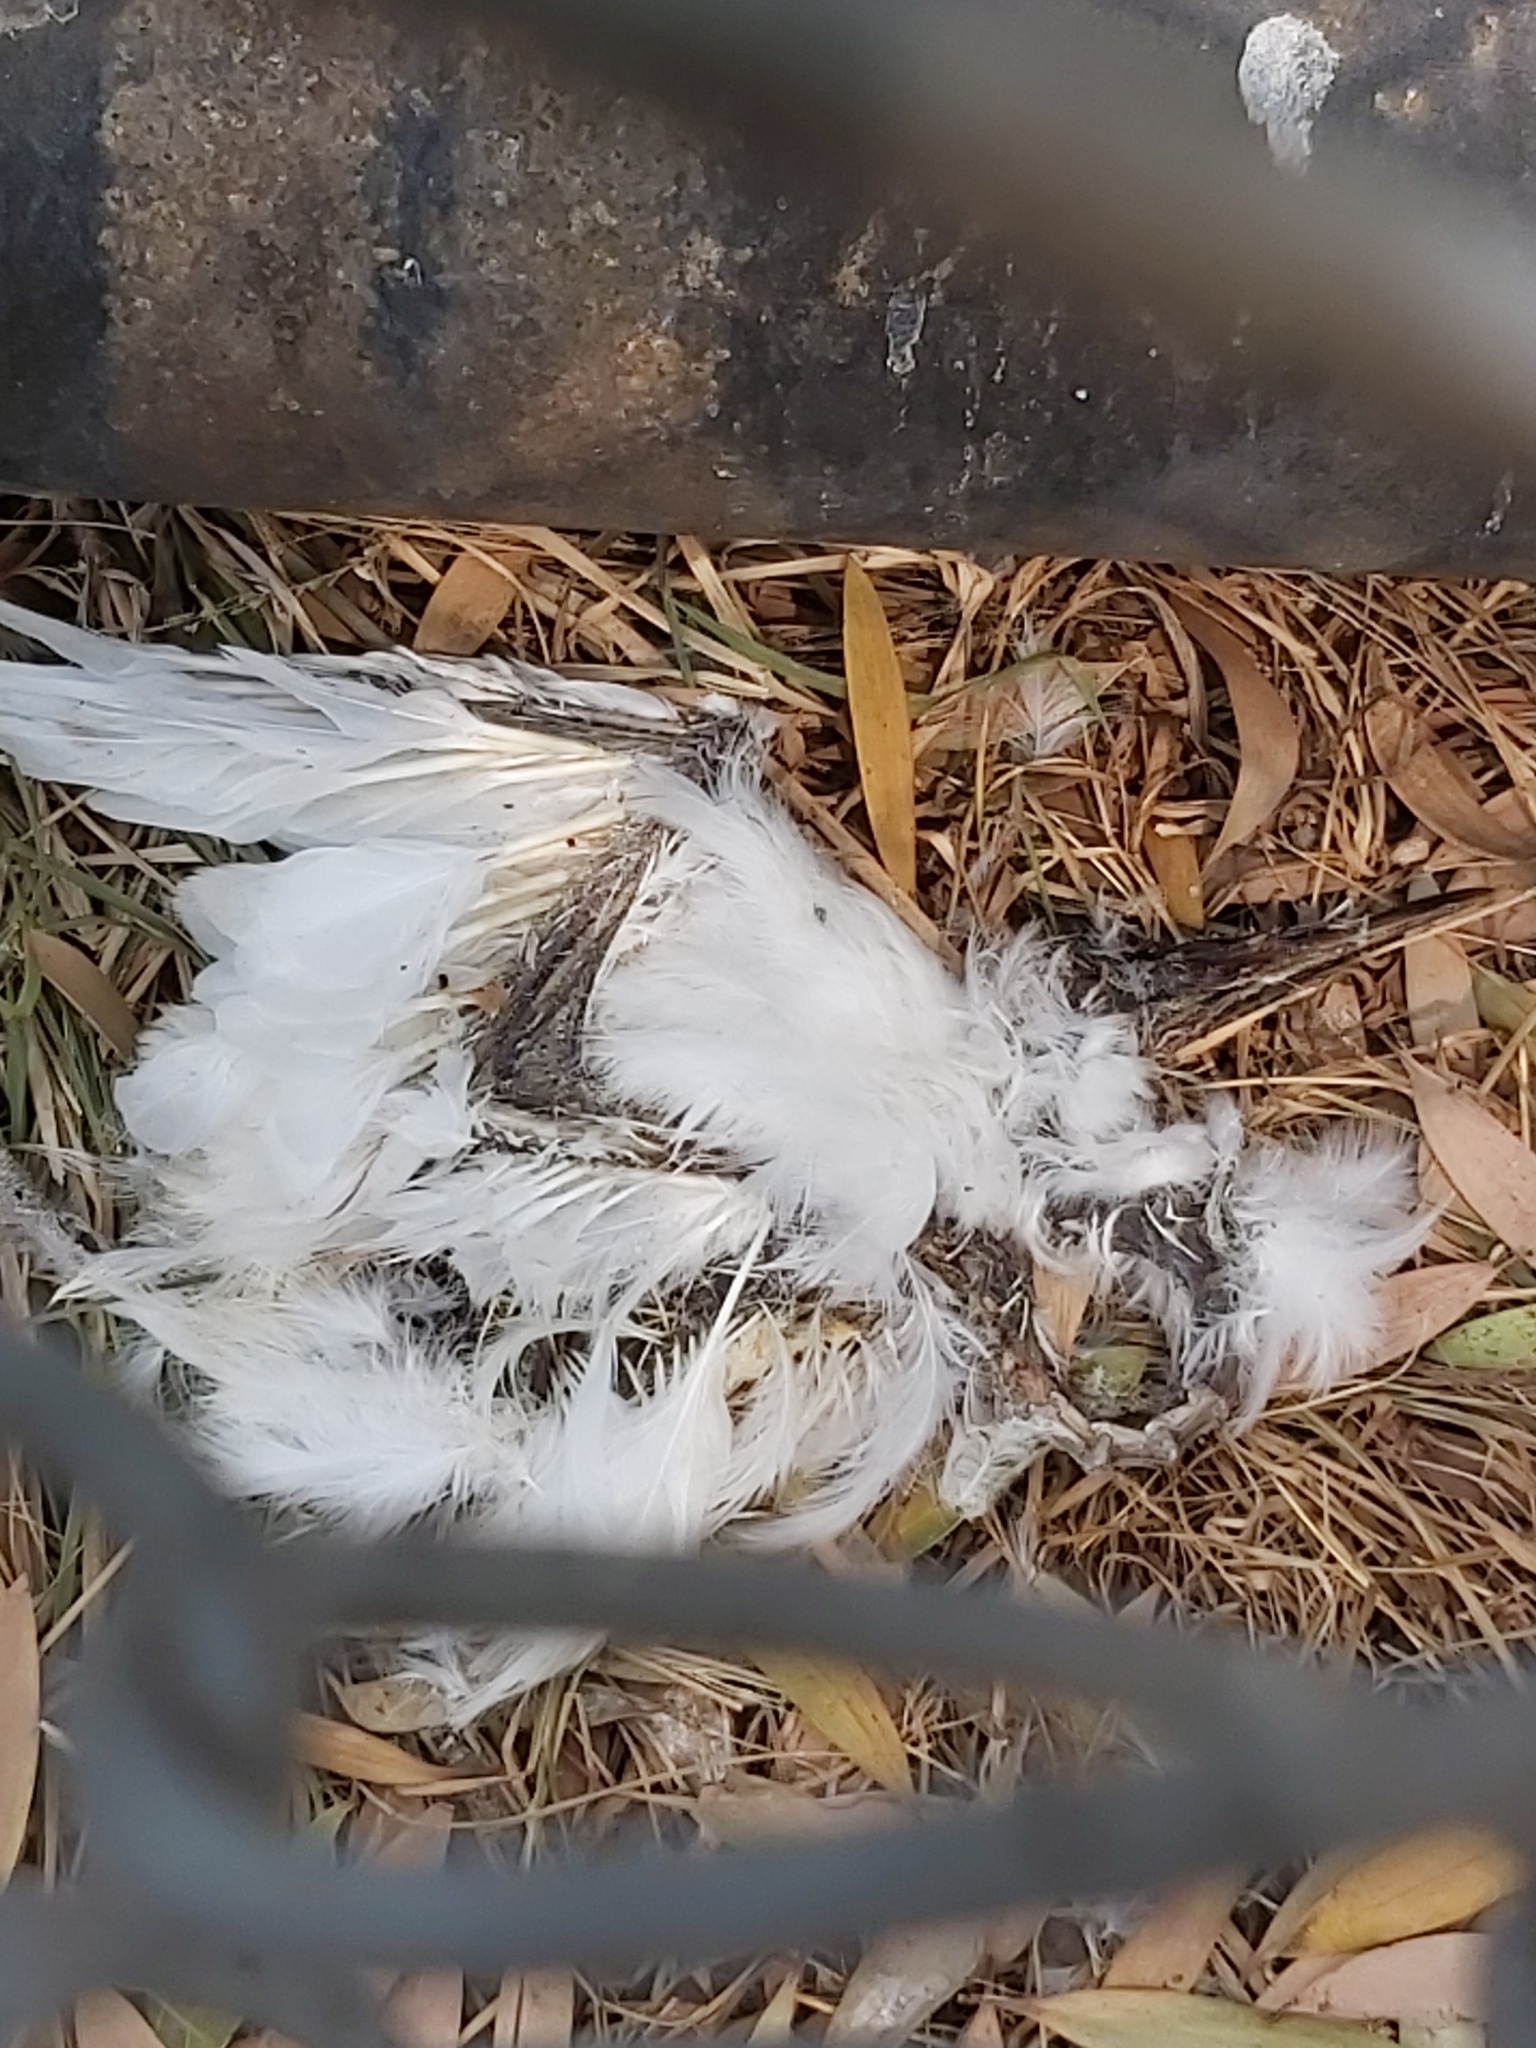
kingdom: Animalia
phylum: Chordata
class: Aves
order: Pelecaniformes
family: Threskiornithidae
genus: Threskiornis
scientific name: Threskiornis molucca
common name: Australian white ibis
